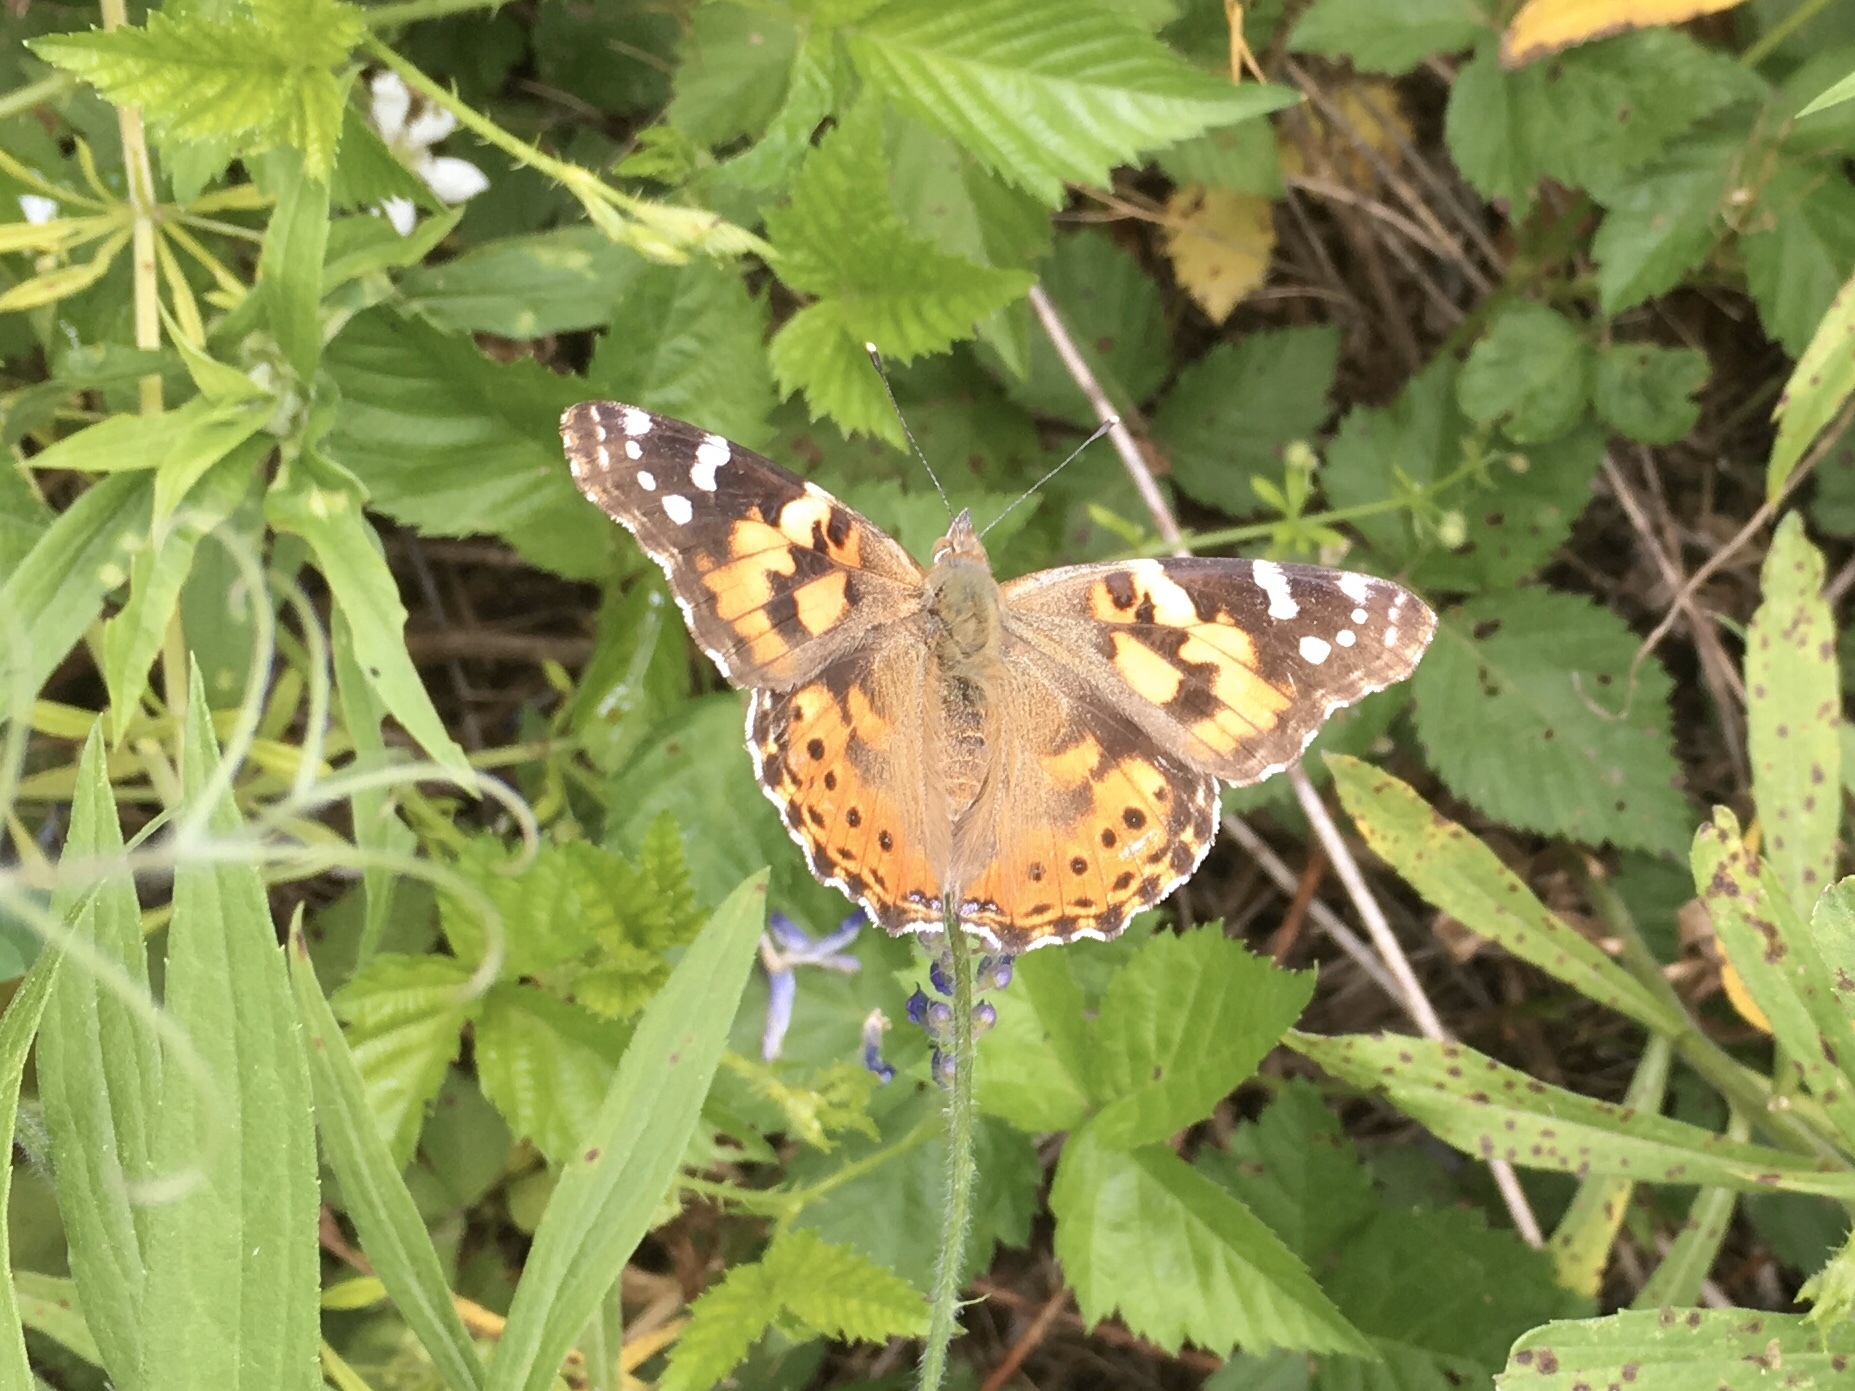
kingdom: Animalia
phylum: Arthropoda
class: Insecta
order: Lepidoptera
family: Nymphalidae
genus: Vanessa
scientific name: Vanessa cardui
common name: Painted lady
